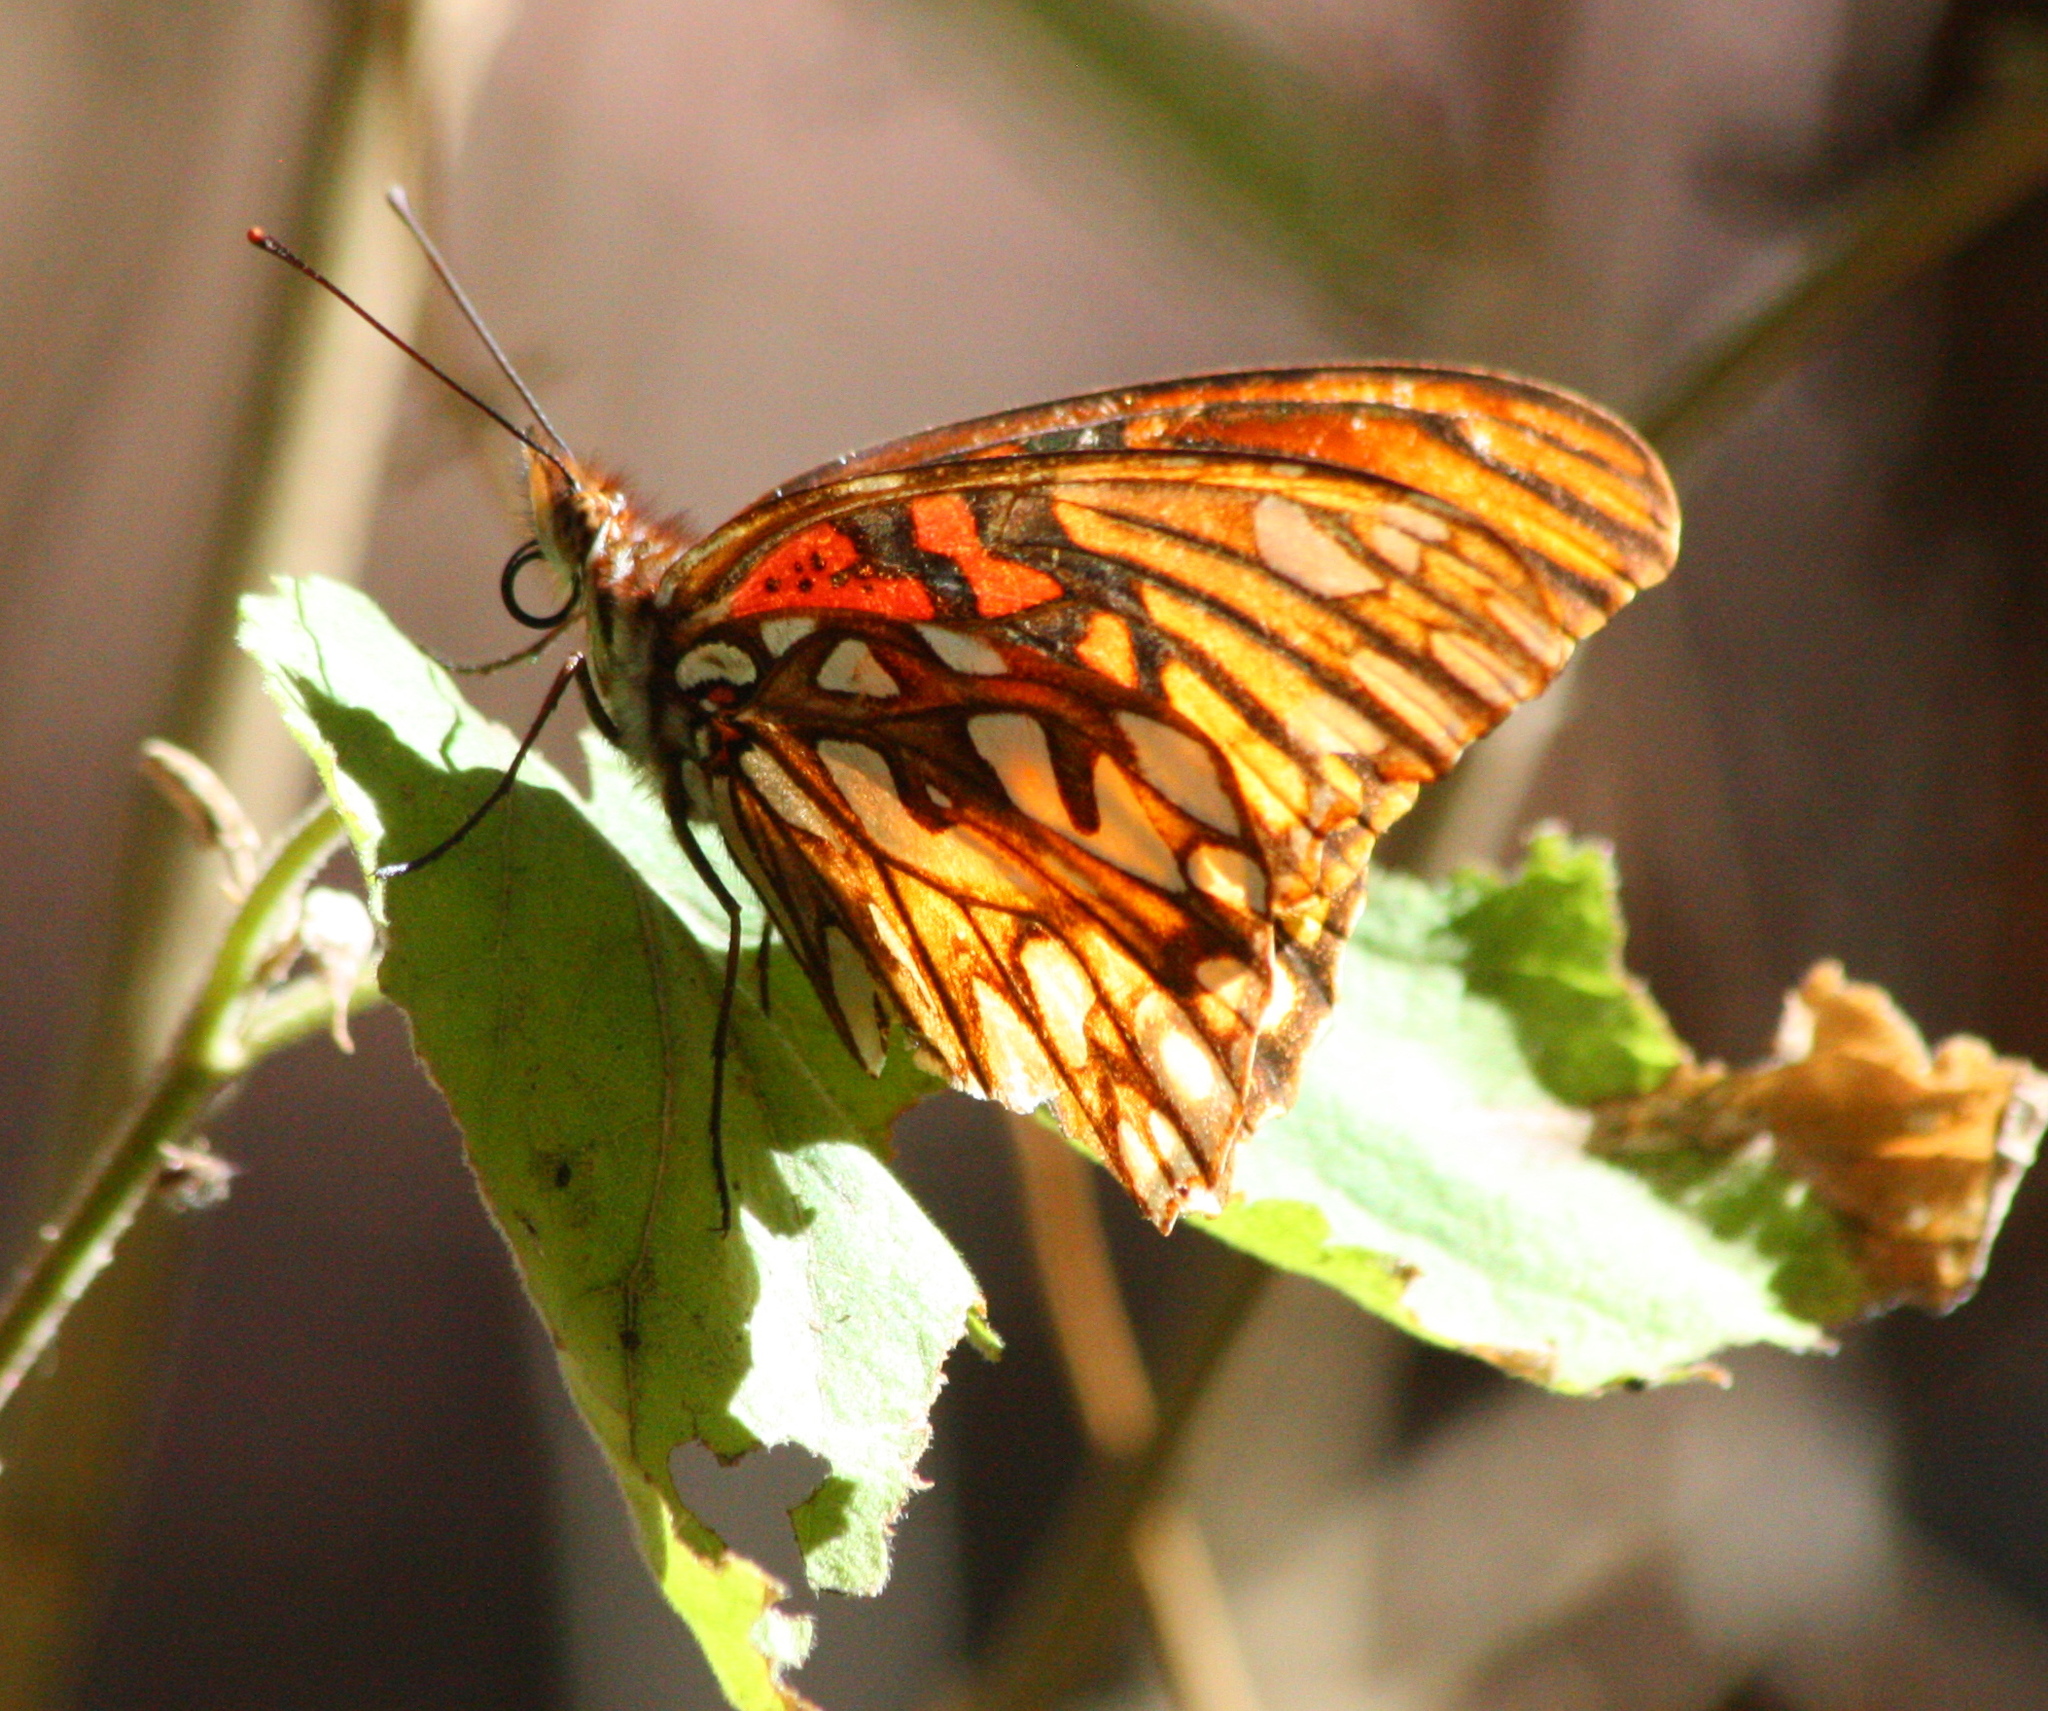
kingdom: Animalia
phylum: Arthropoda
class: Insecta
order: Lepidoptera
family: Nymphalidae
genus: Dione
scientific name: Dione moneta
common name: Mexican silverspot
